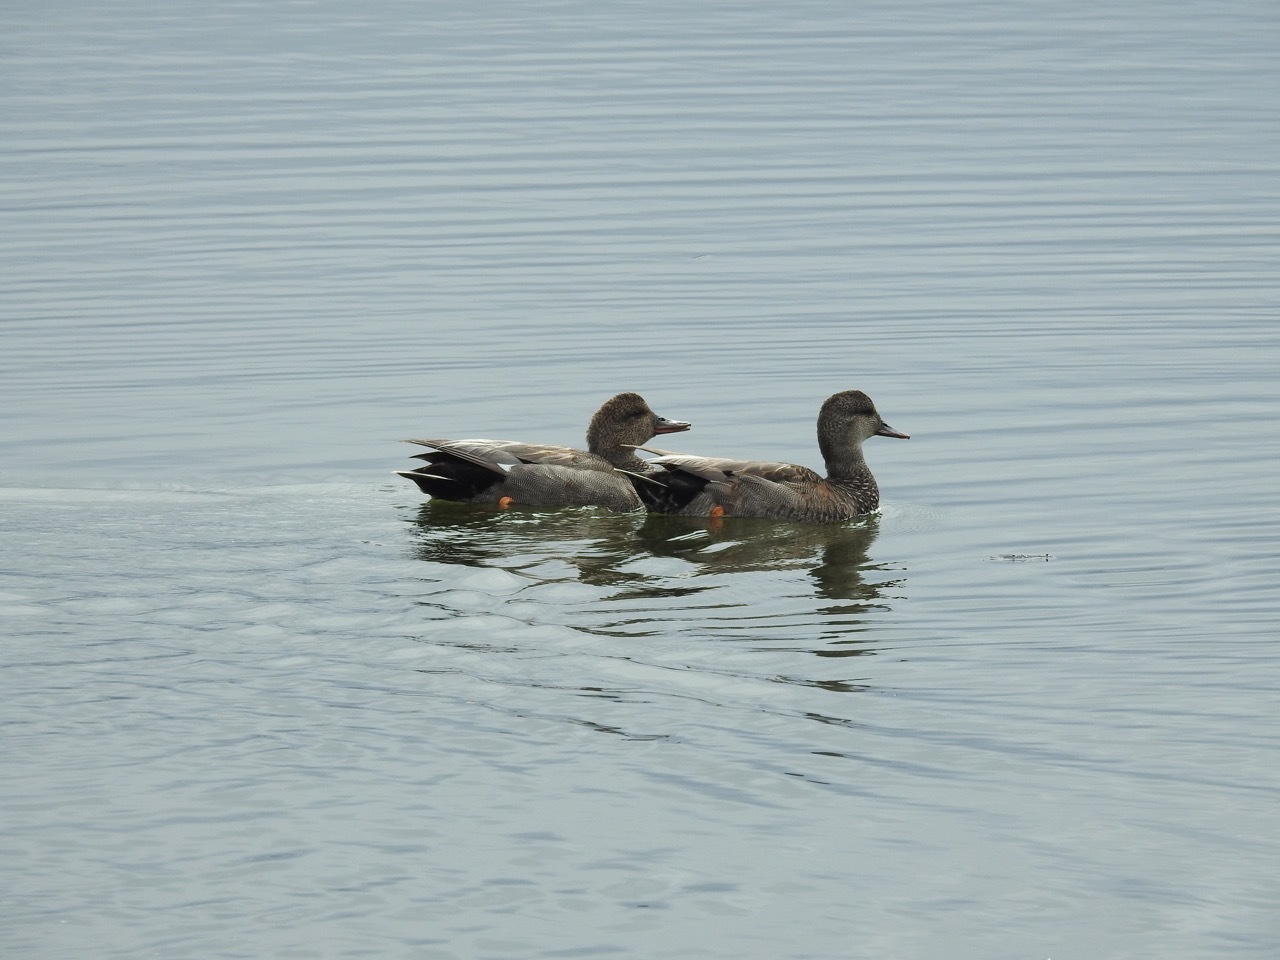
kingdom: Animalia
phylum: Chordata
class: Aves
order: Anseriformes
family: Anatidae
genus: Mareca
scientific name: Mareca strepera
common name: Gadwall
